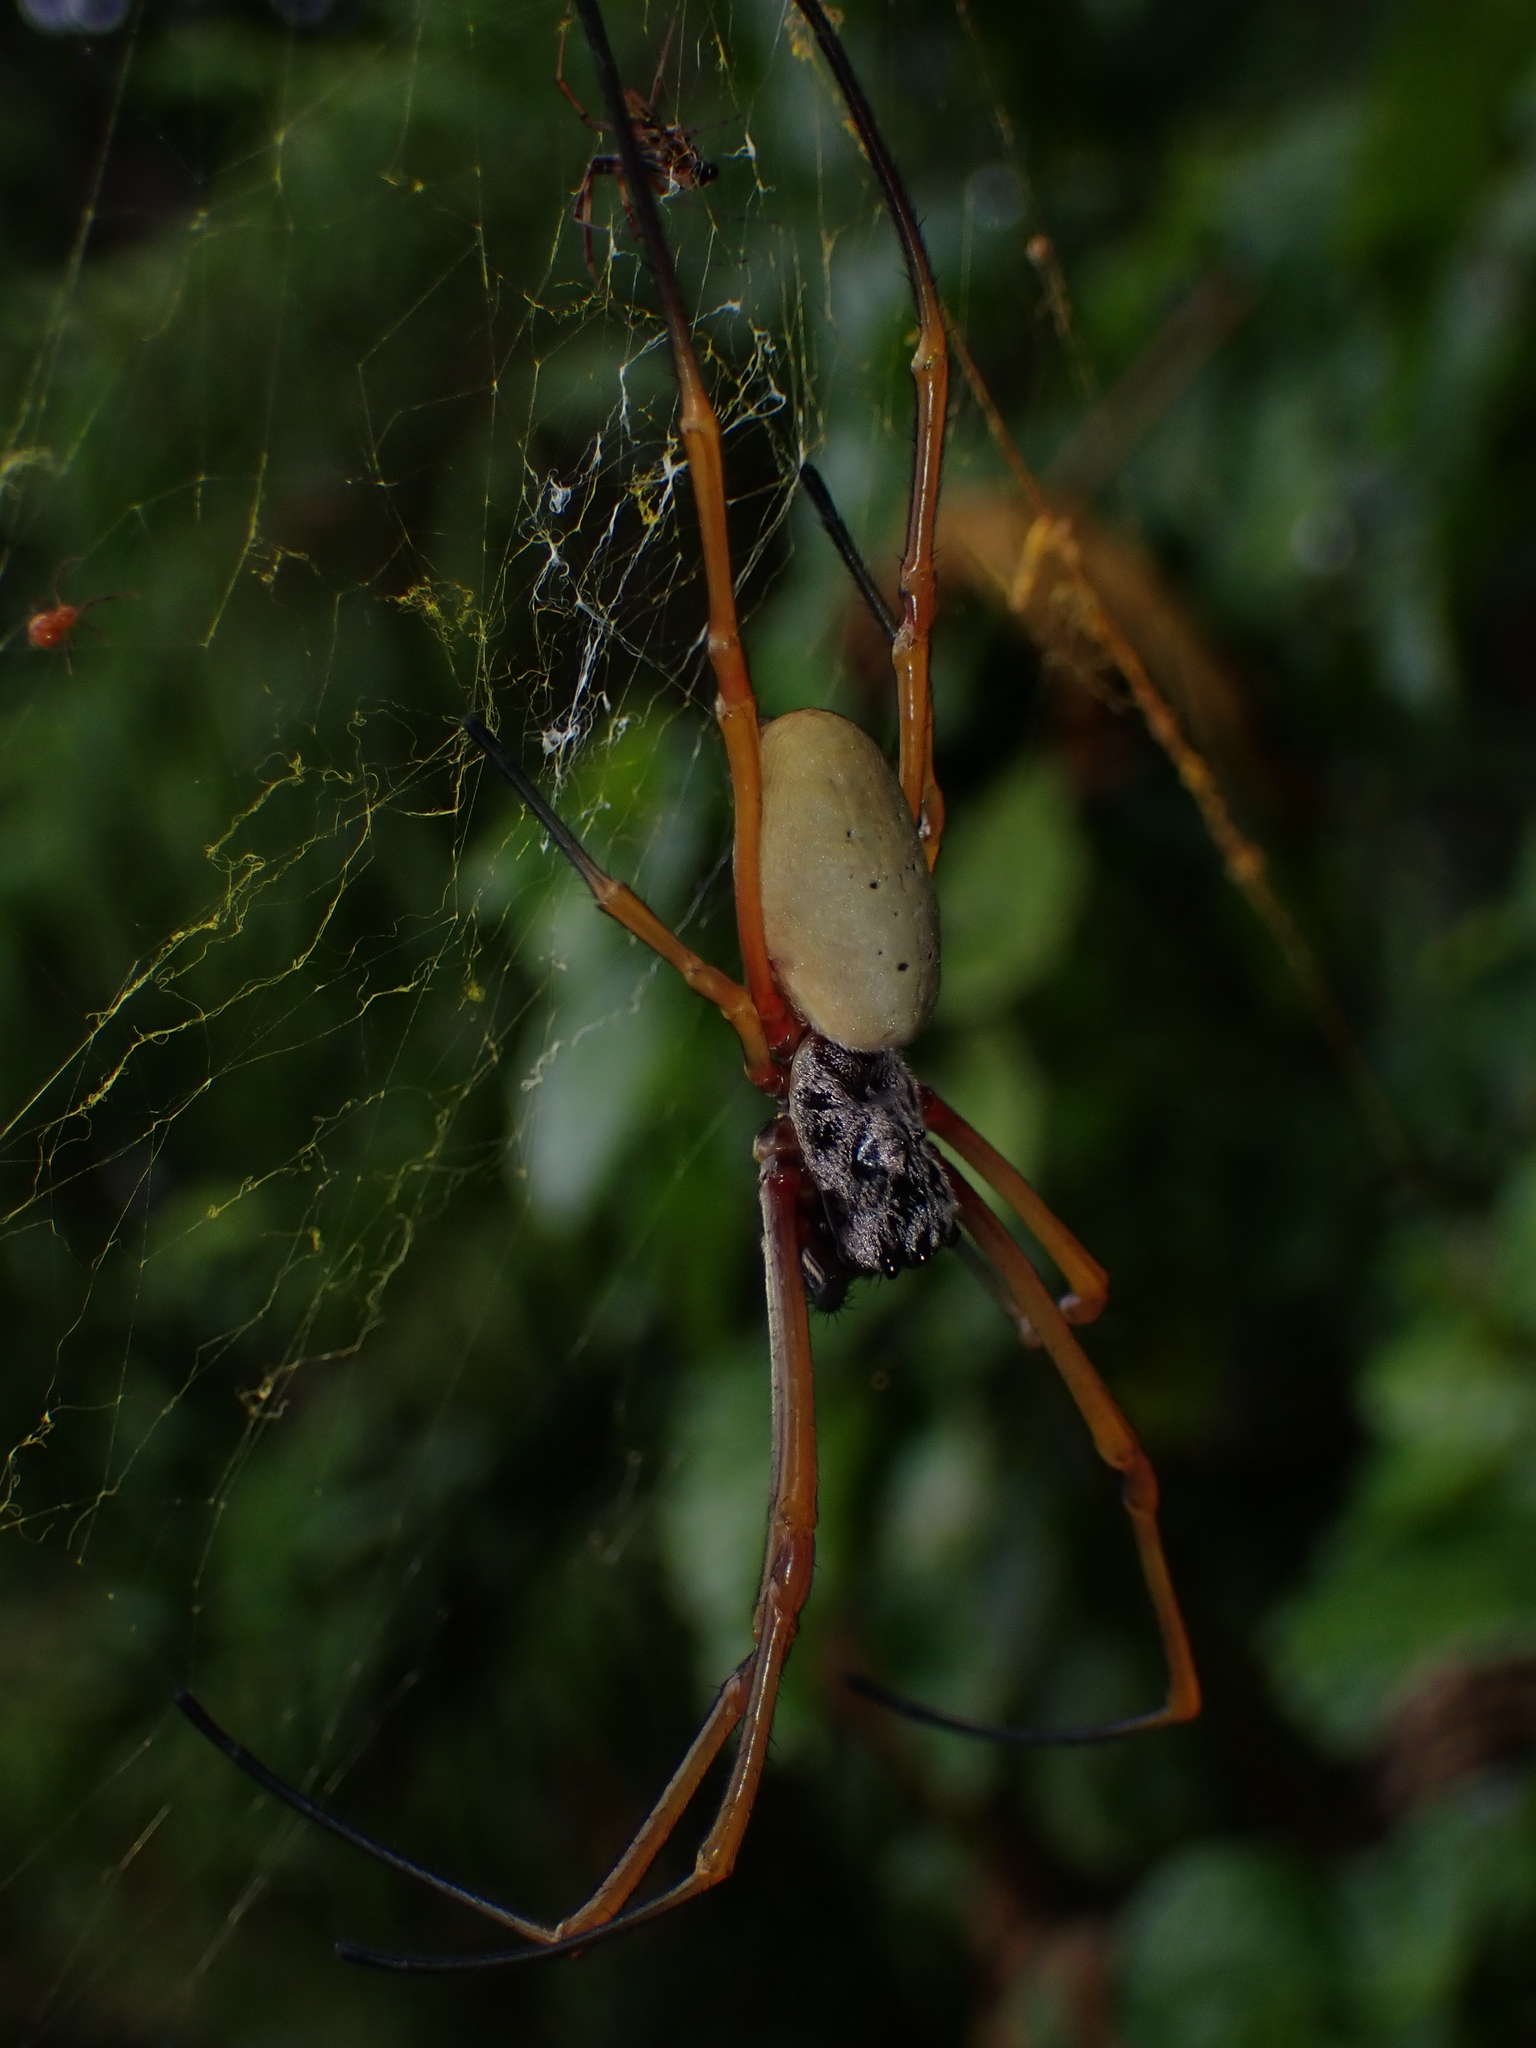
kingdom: Animalia
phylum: Arthropoda
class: Arachnida
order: Araneae
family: Araneidae
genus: Trichonephila
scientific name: Trichonephila plumipes
